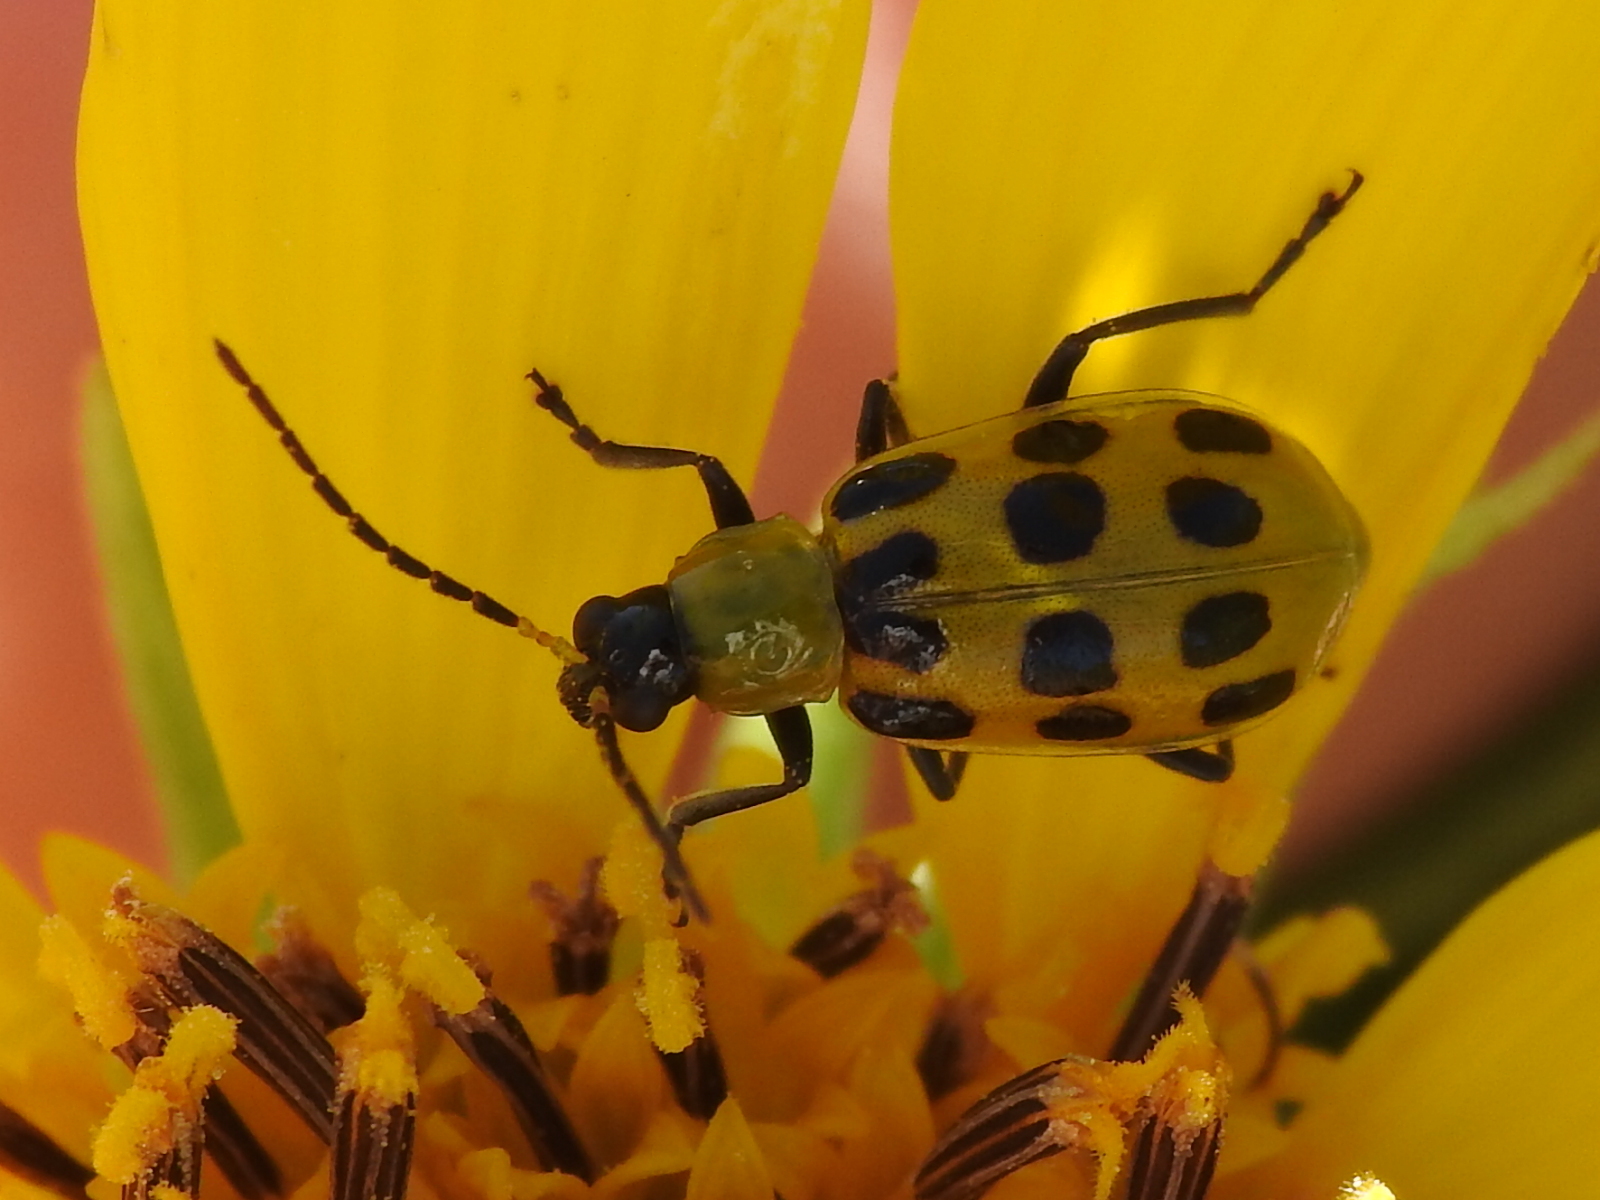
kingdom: Animalia
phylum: Arthropoda
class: Insecta
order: Coleoptera
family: Chrysomelidae
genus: Diabrotica
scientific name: Diabrotica undecimpunctata
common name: Spotted cucumber beetle
